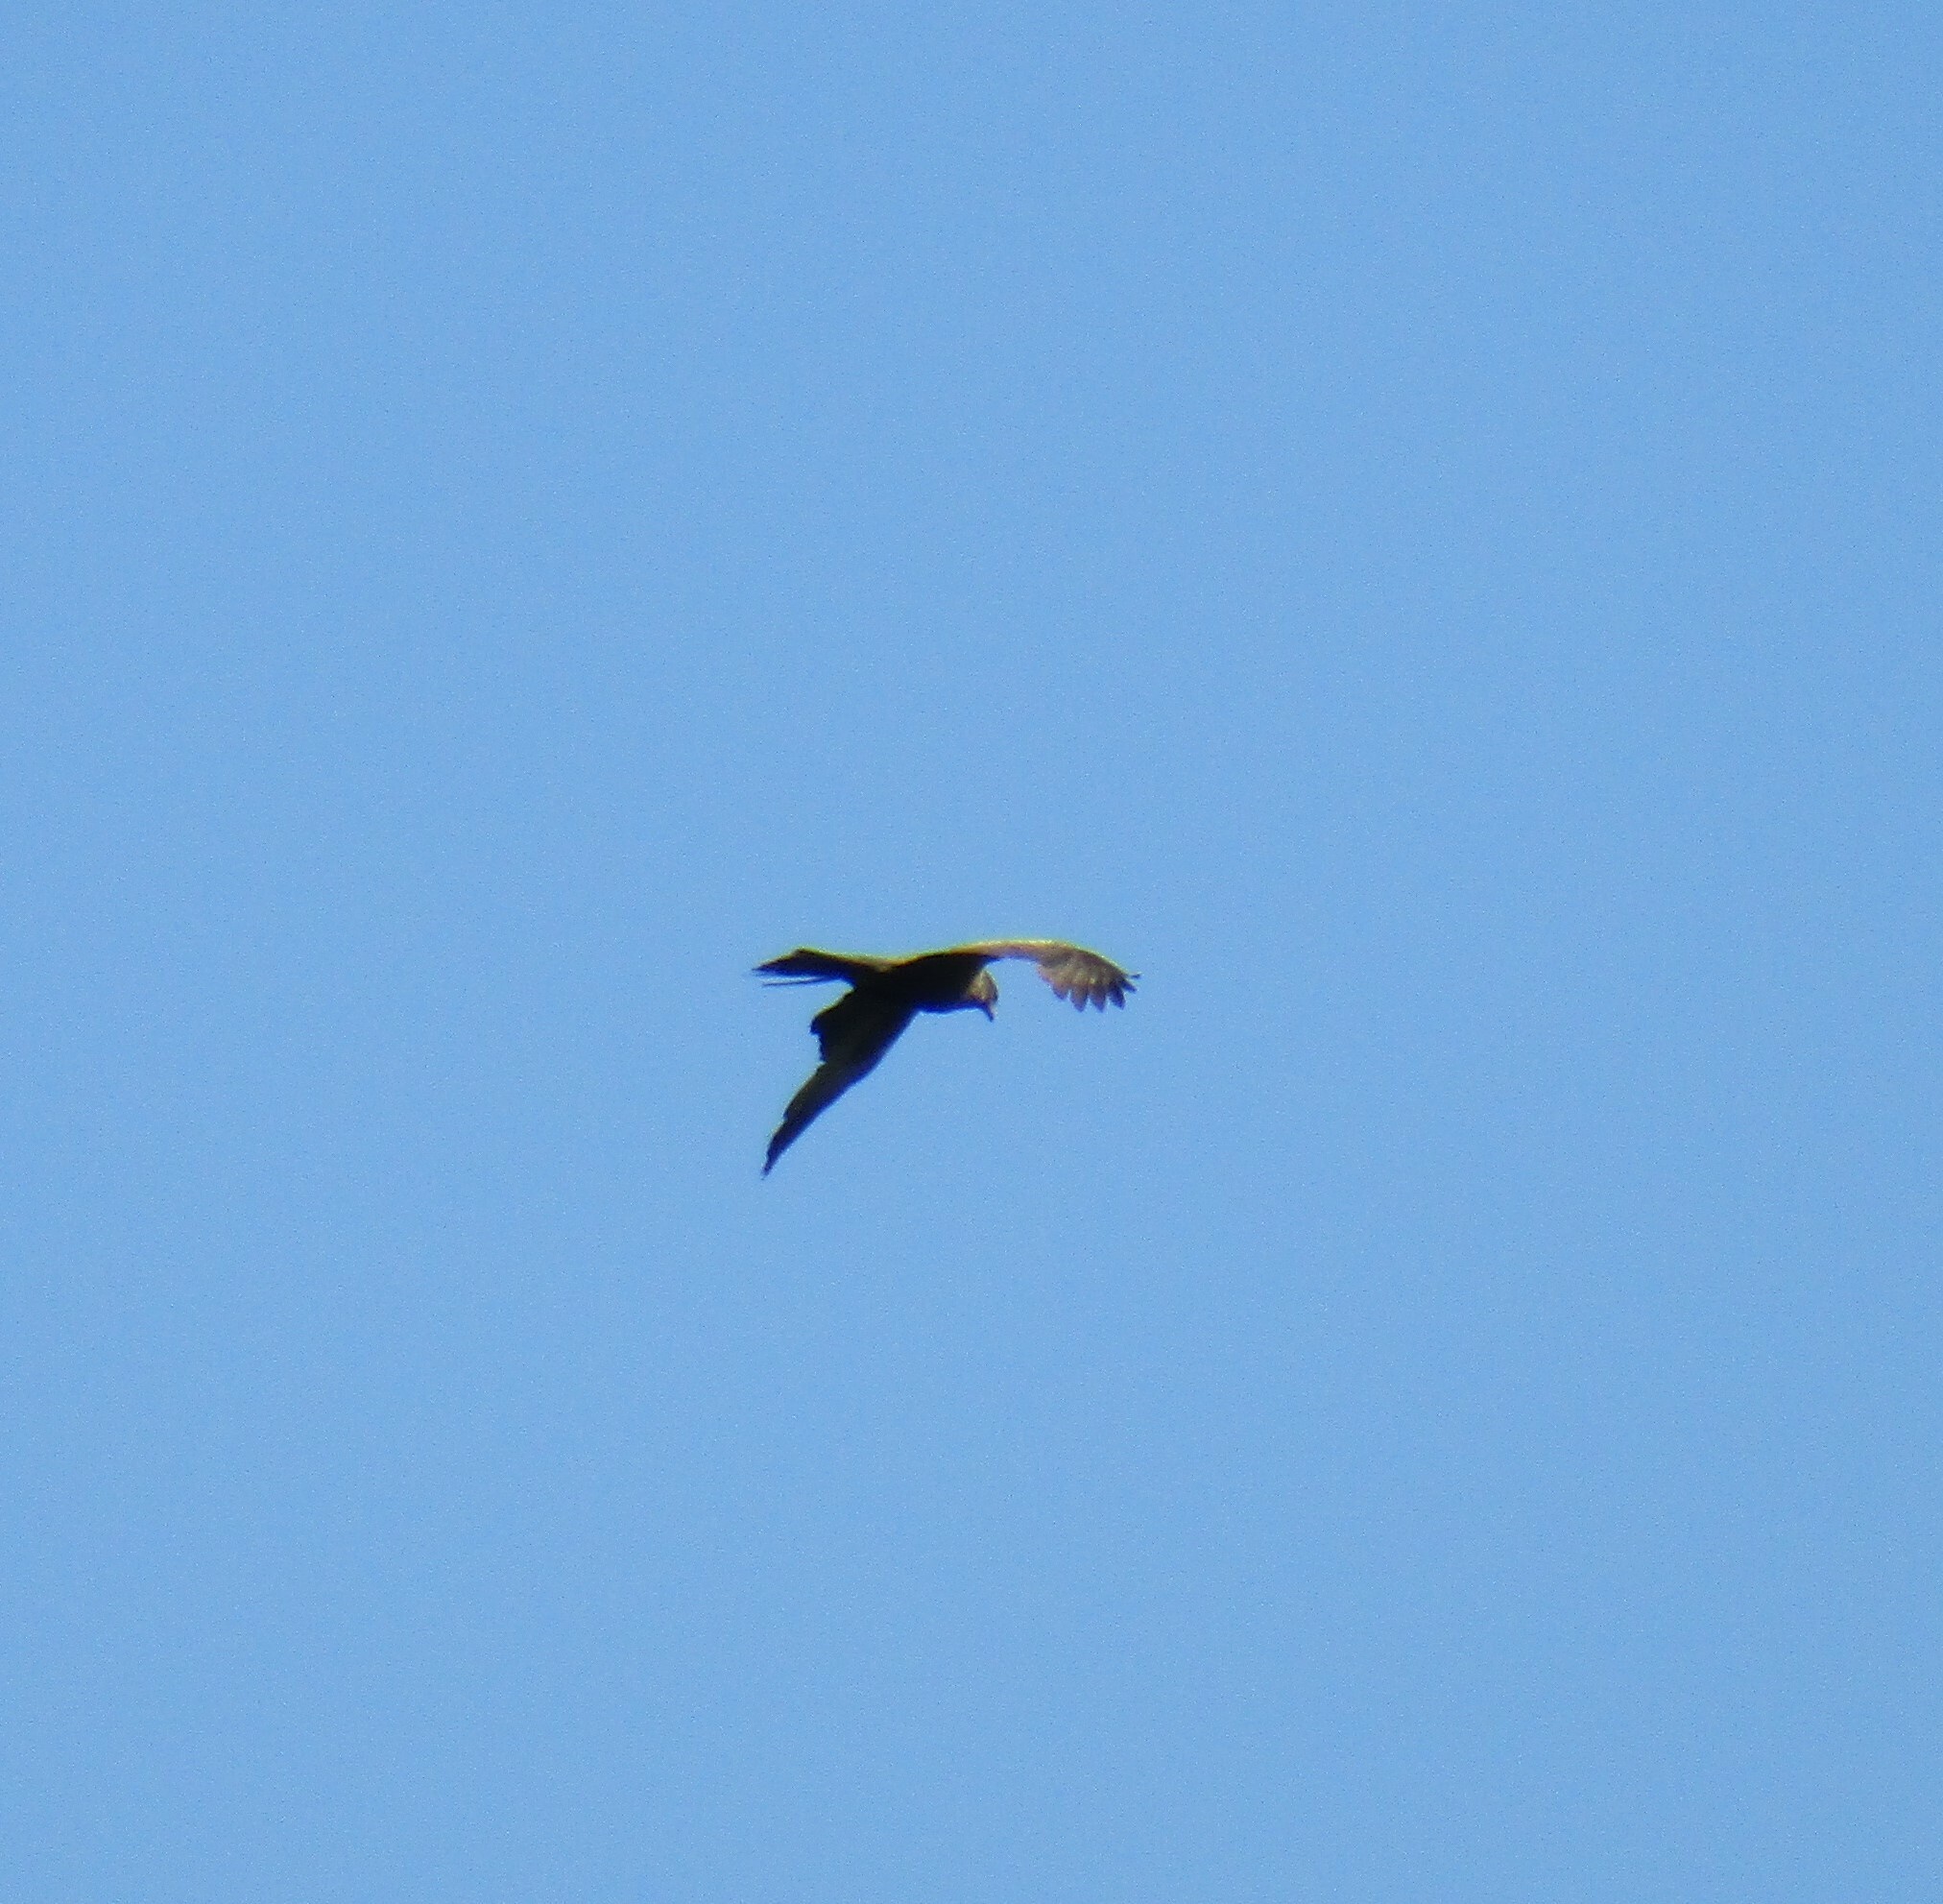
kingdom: Animalia
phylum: Chordata
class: Aves
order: Accipitriformes
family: Accipitridae
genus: Milvus
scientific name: Milvus migrans
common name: Black kite
